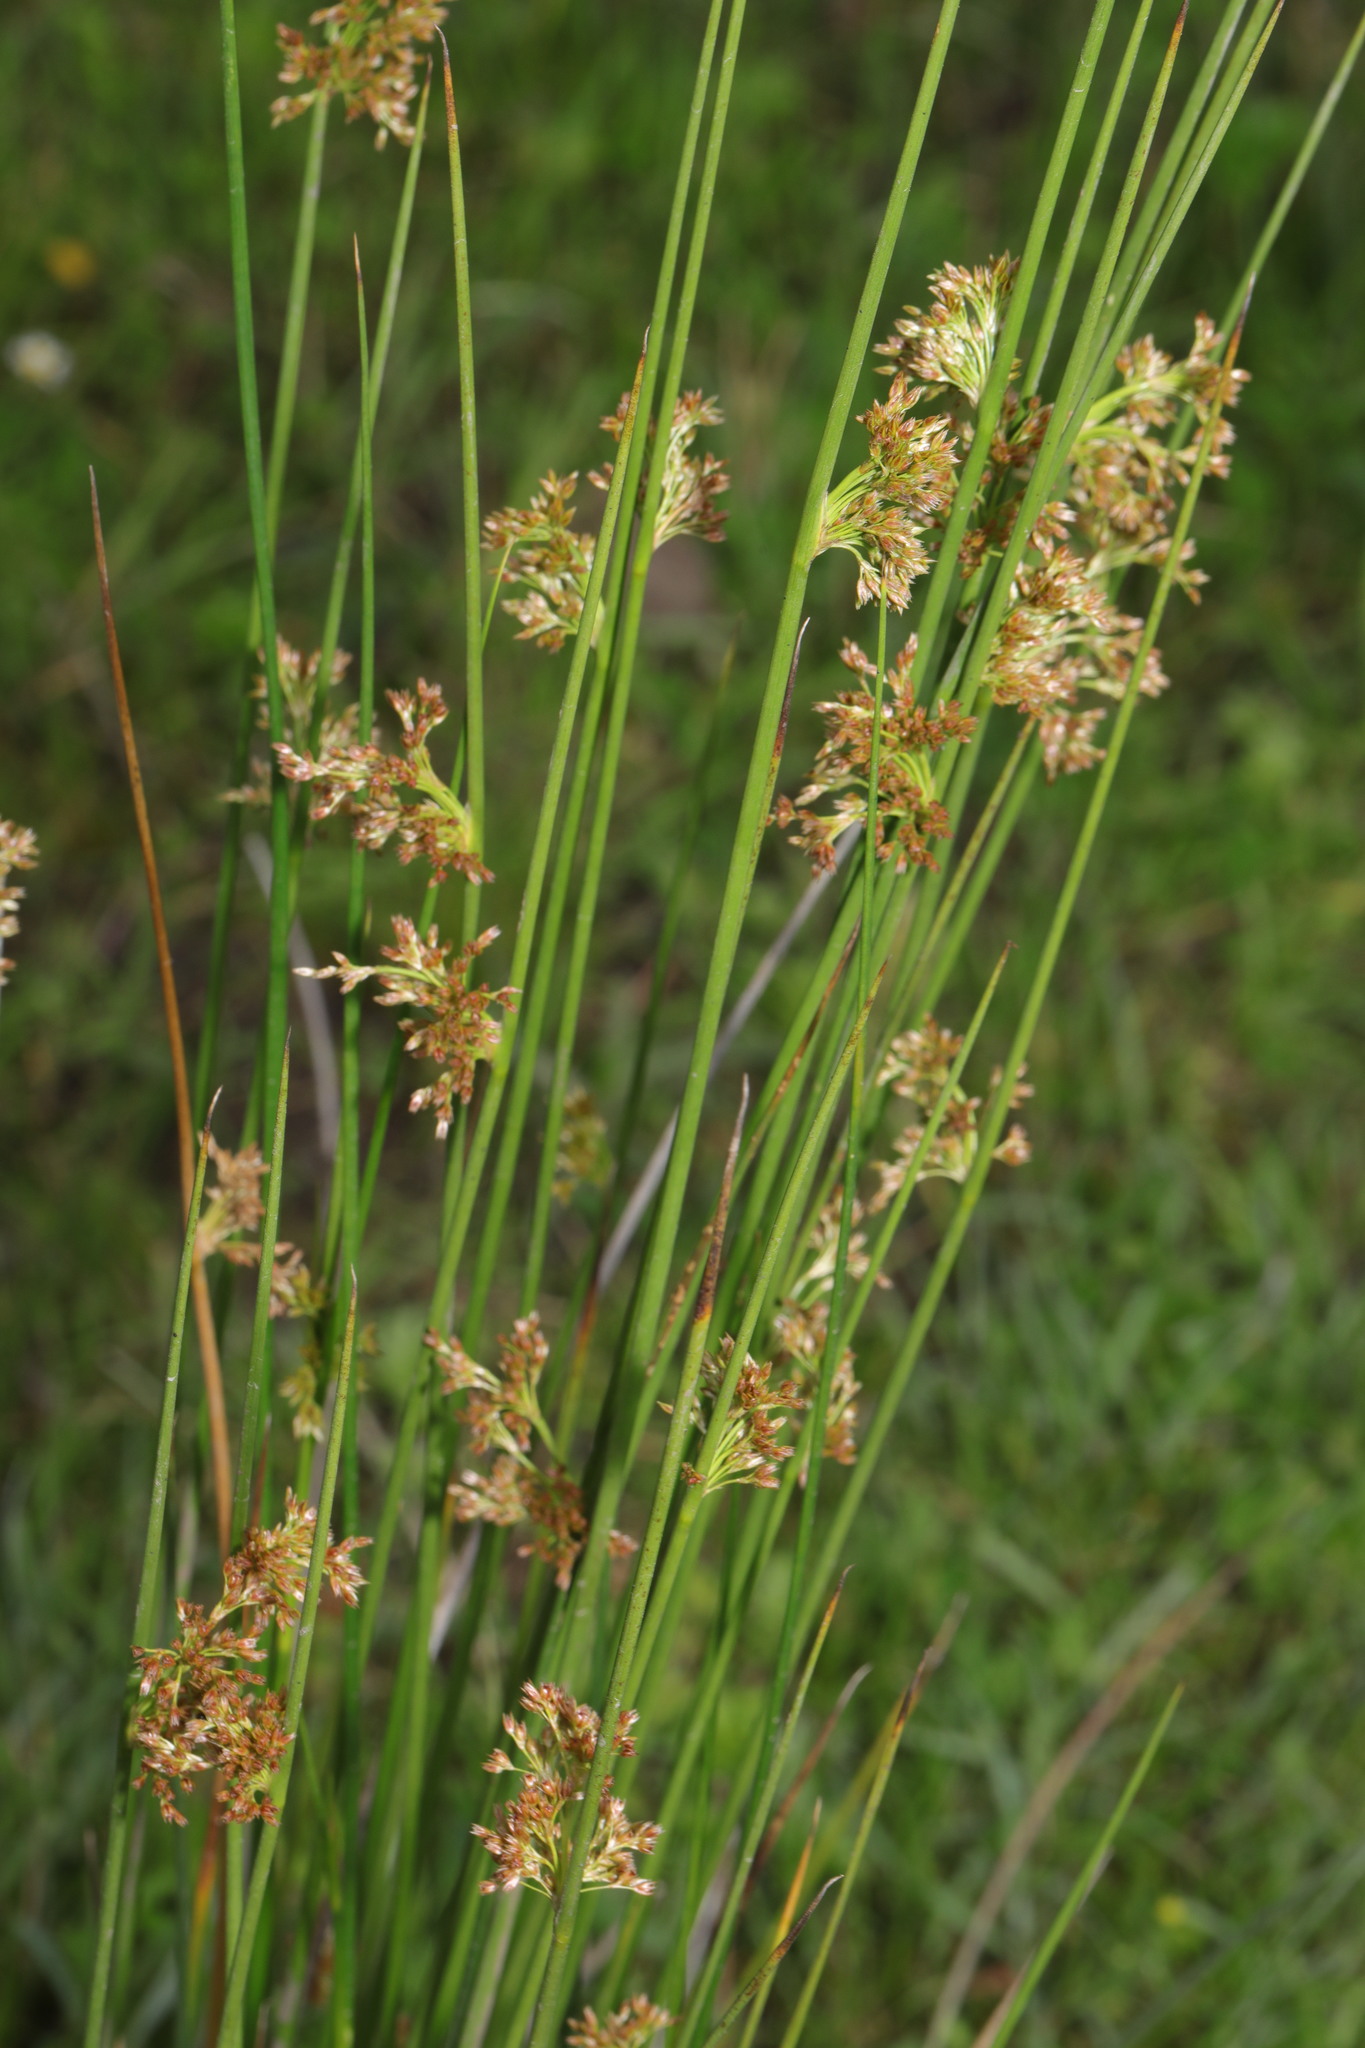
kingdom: Plantae
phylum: Tracheophyta
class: Liliopsida
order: Poales
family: Juncaceae
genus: Juncus
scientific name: Juncus effusus
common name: Soft rush
